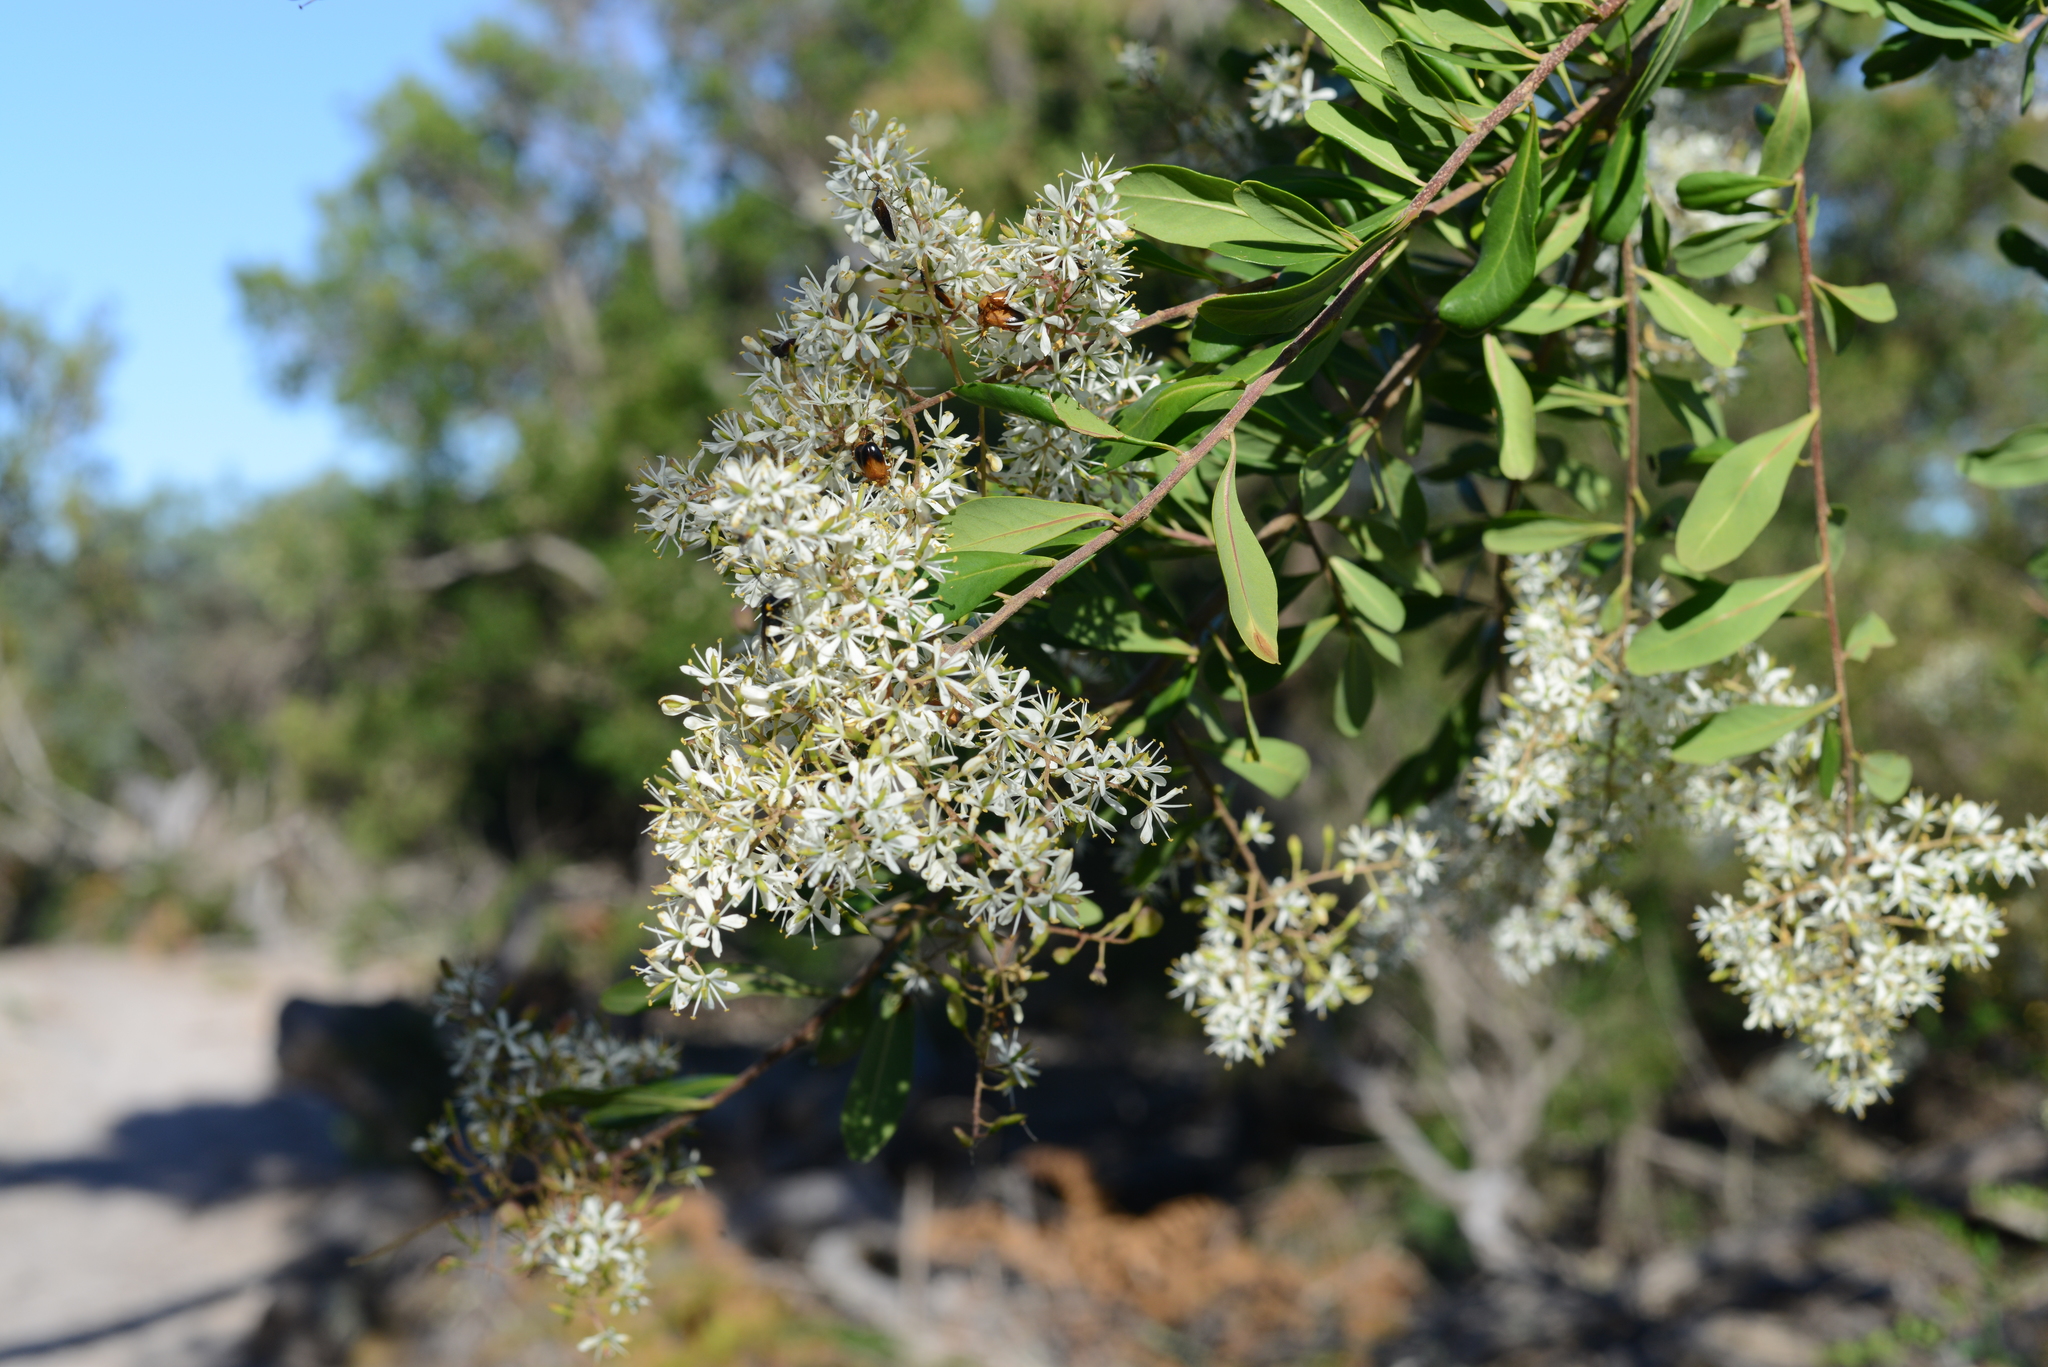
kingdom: Plantae
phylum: Tracheophyta
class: Magnoliopsida
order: Apiales
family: Pittosporaceae
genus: Bursaria
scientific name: Bursaria spinosa
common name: Australian blackthorn
